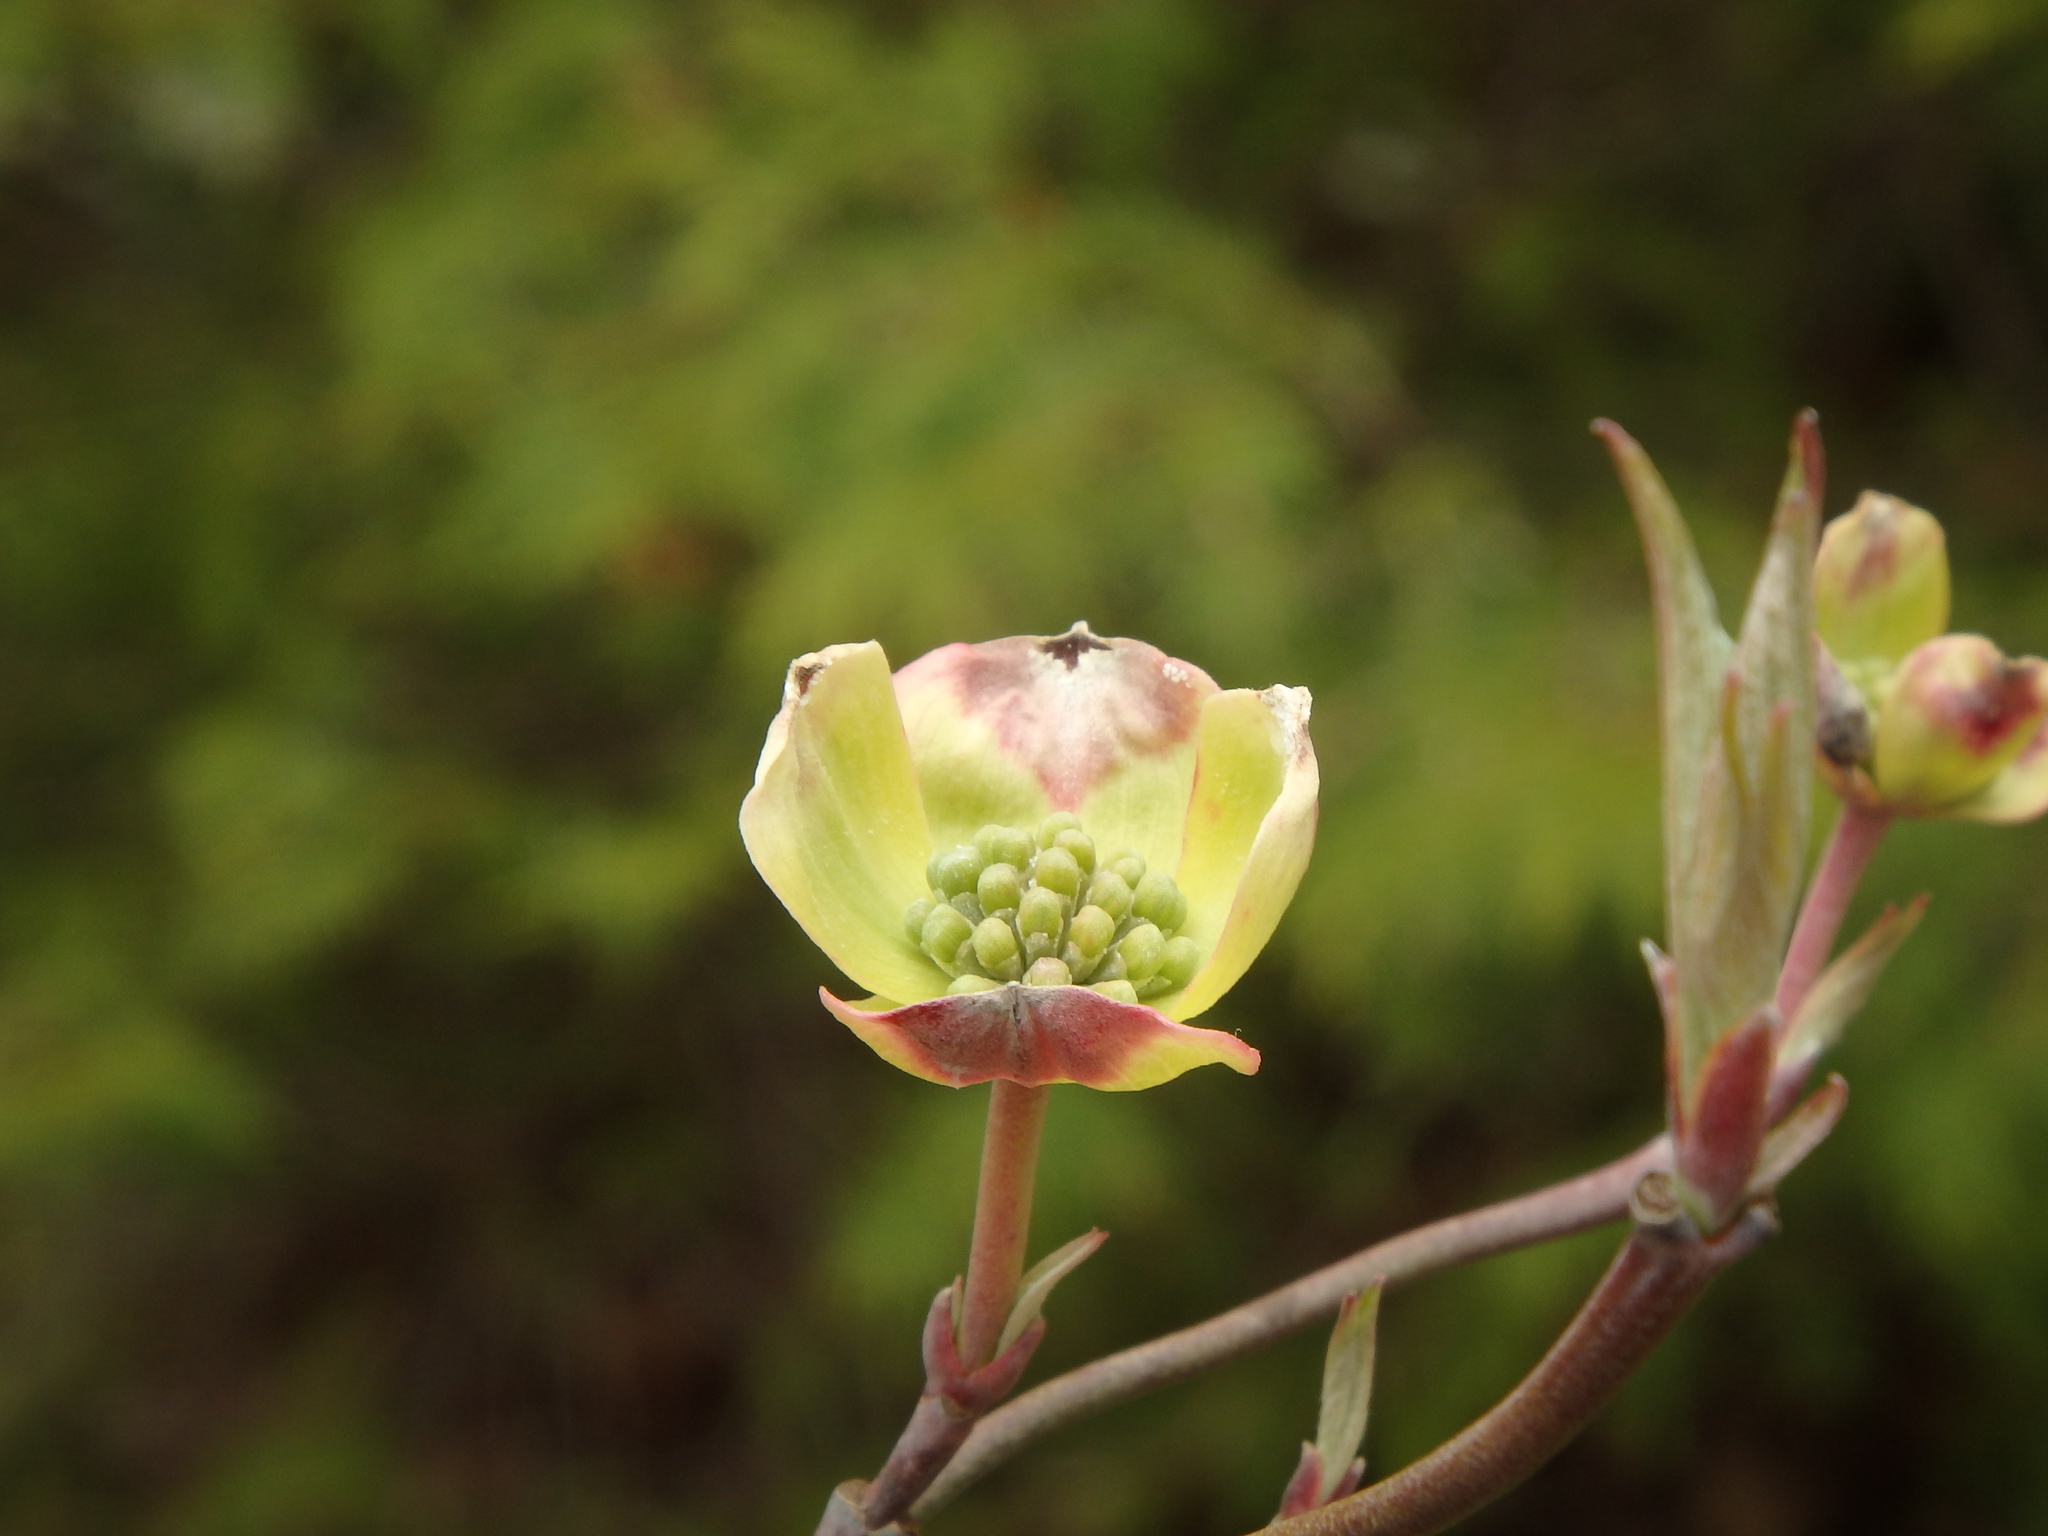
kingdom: Plantae
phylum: Tracheophyta
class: Magnoliopsida
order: Cornales
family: Cornaceae
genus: Cornus
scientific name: Cornus florida
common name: Flowering dogwood
